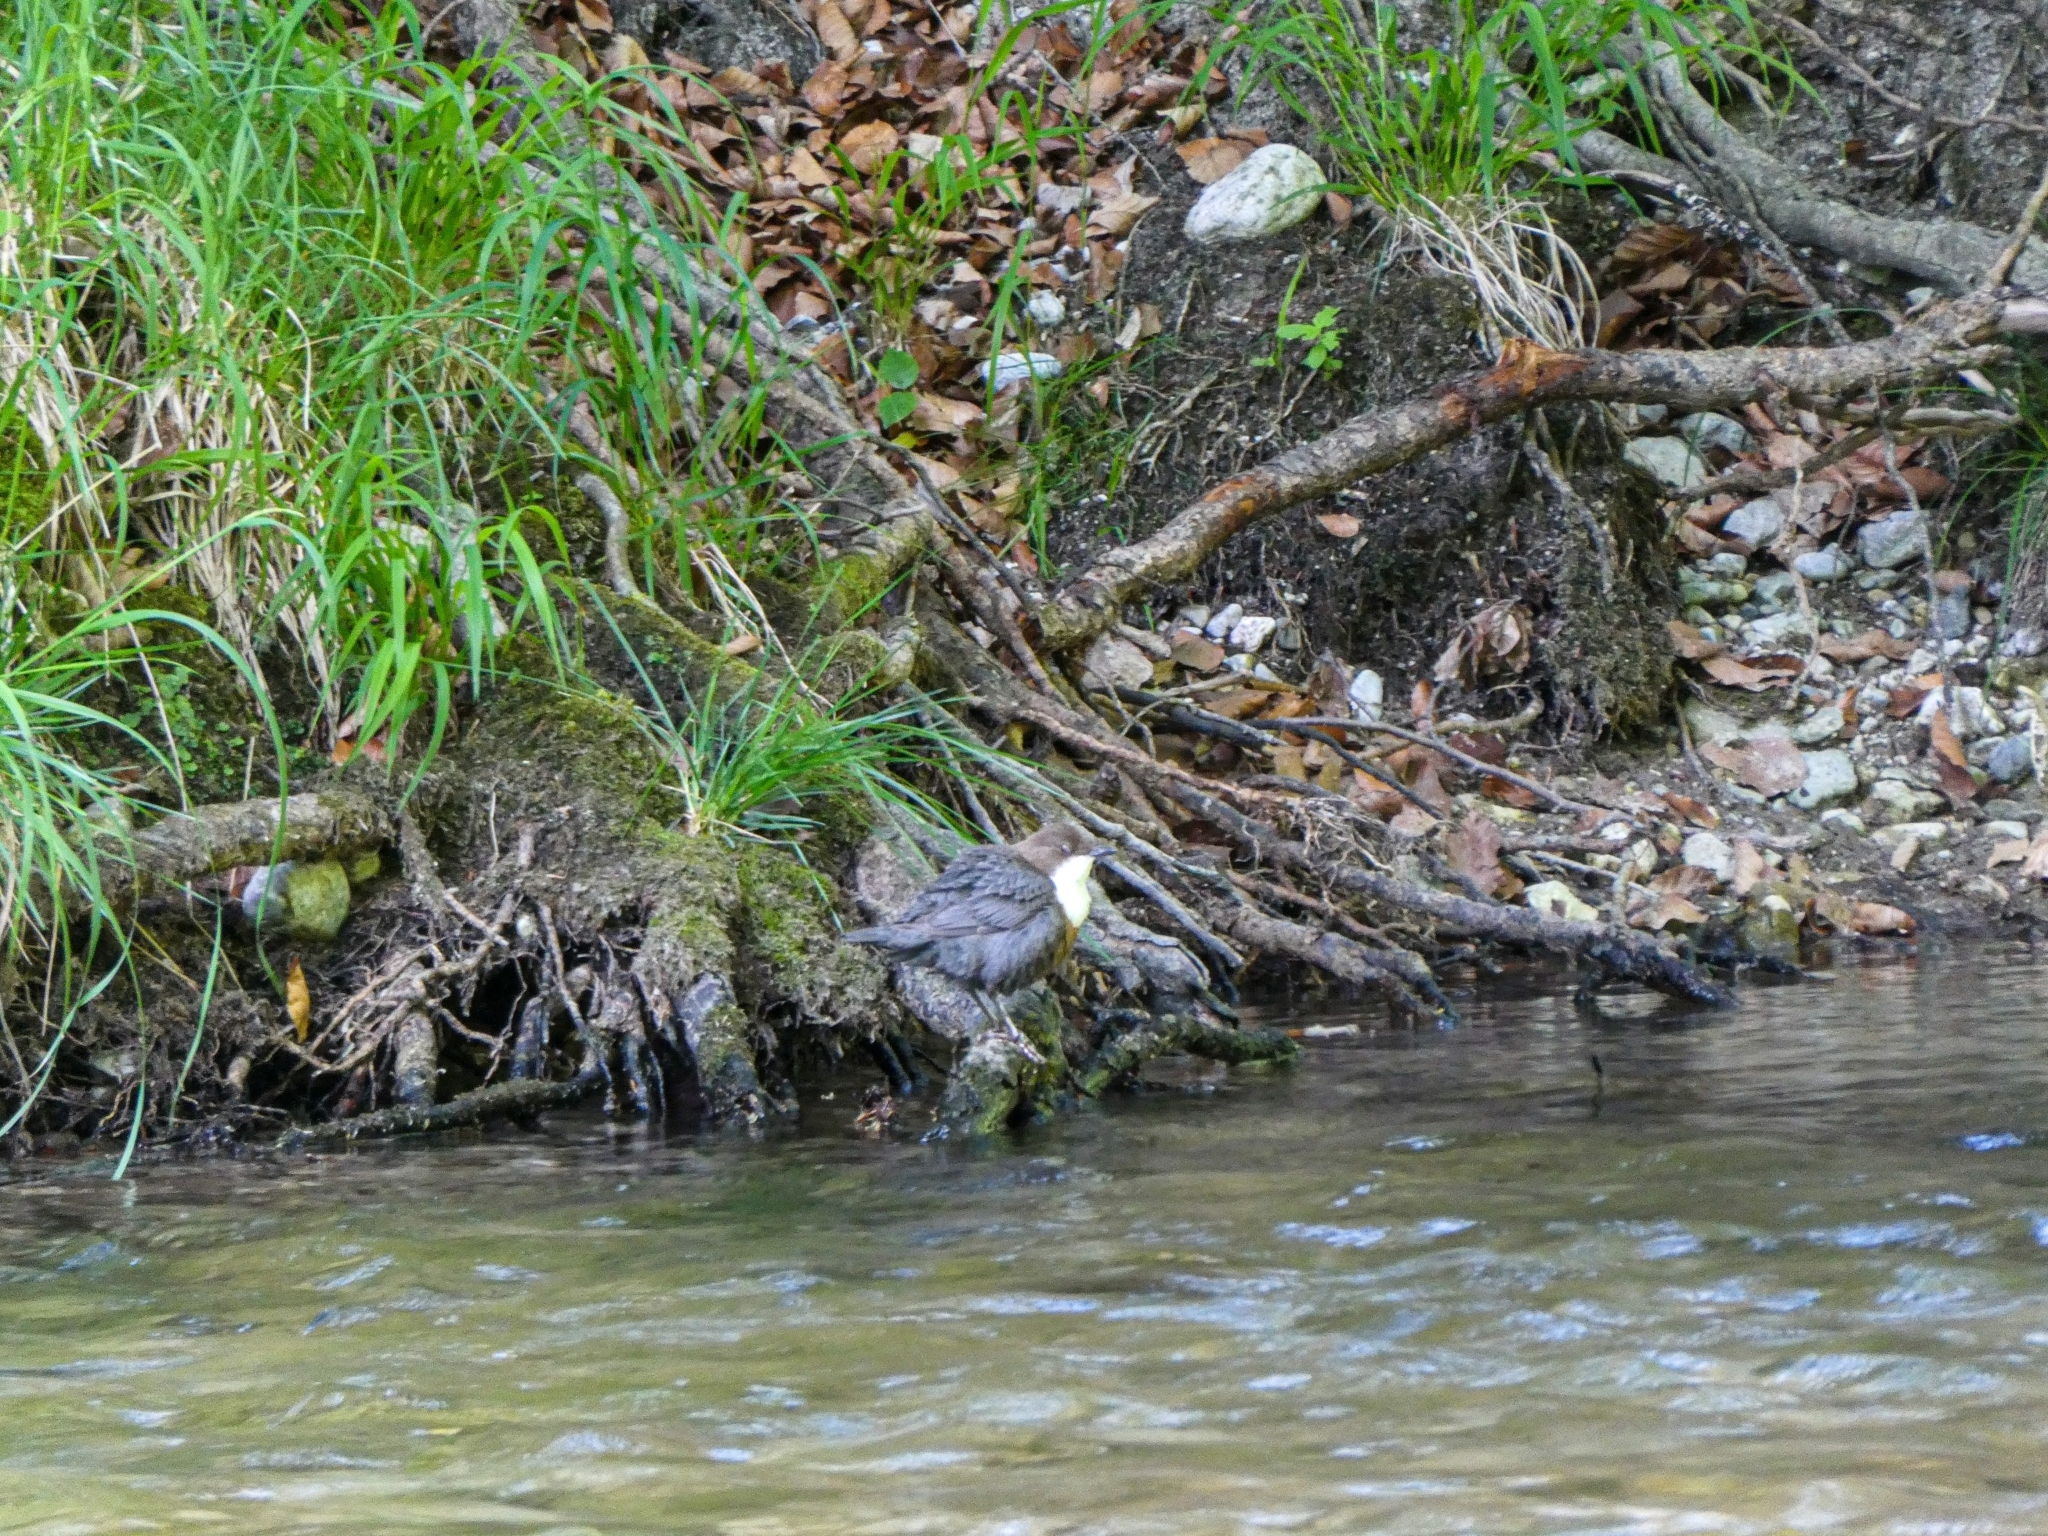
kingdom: Animalia
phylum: Chordata
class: Aves
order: Passeriformes
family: Cinclidae
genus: Cinclus
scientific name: Cinclus cinclus
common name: White-throated dipper
